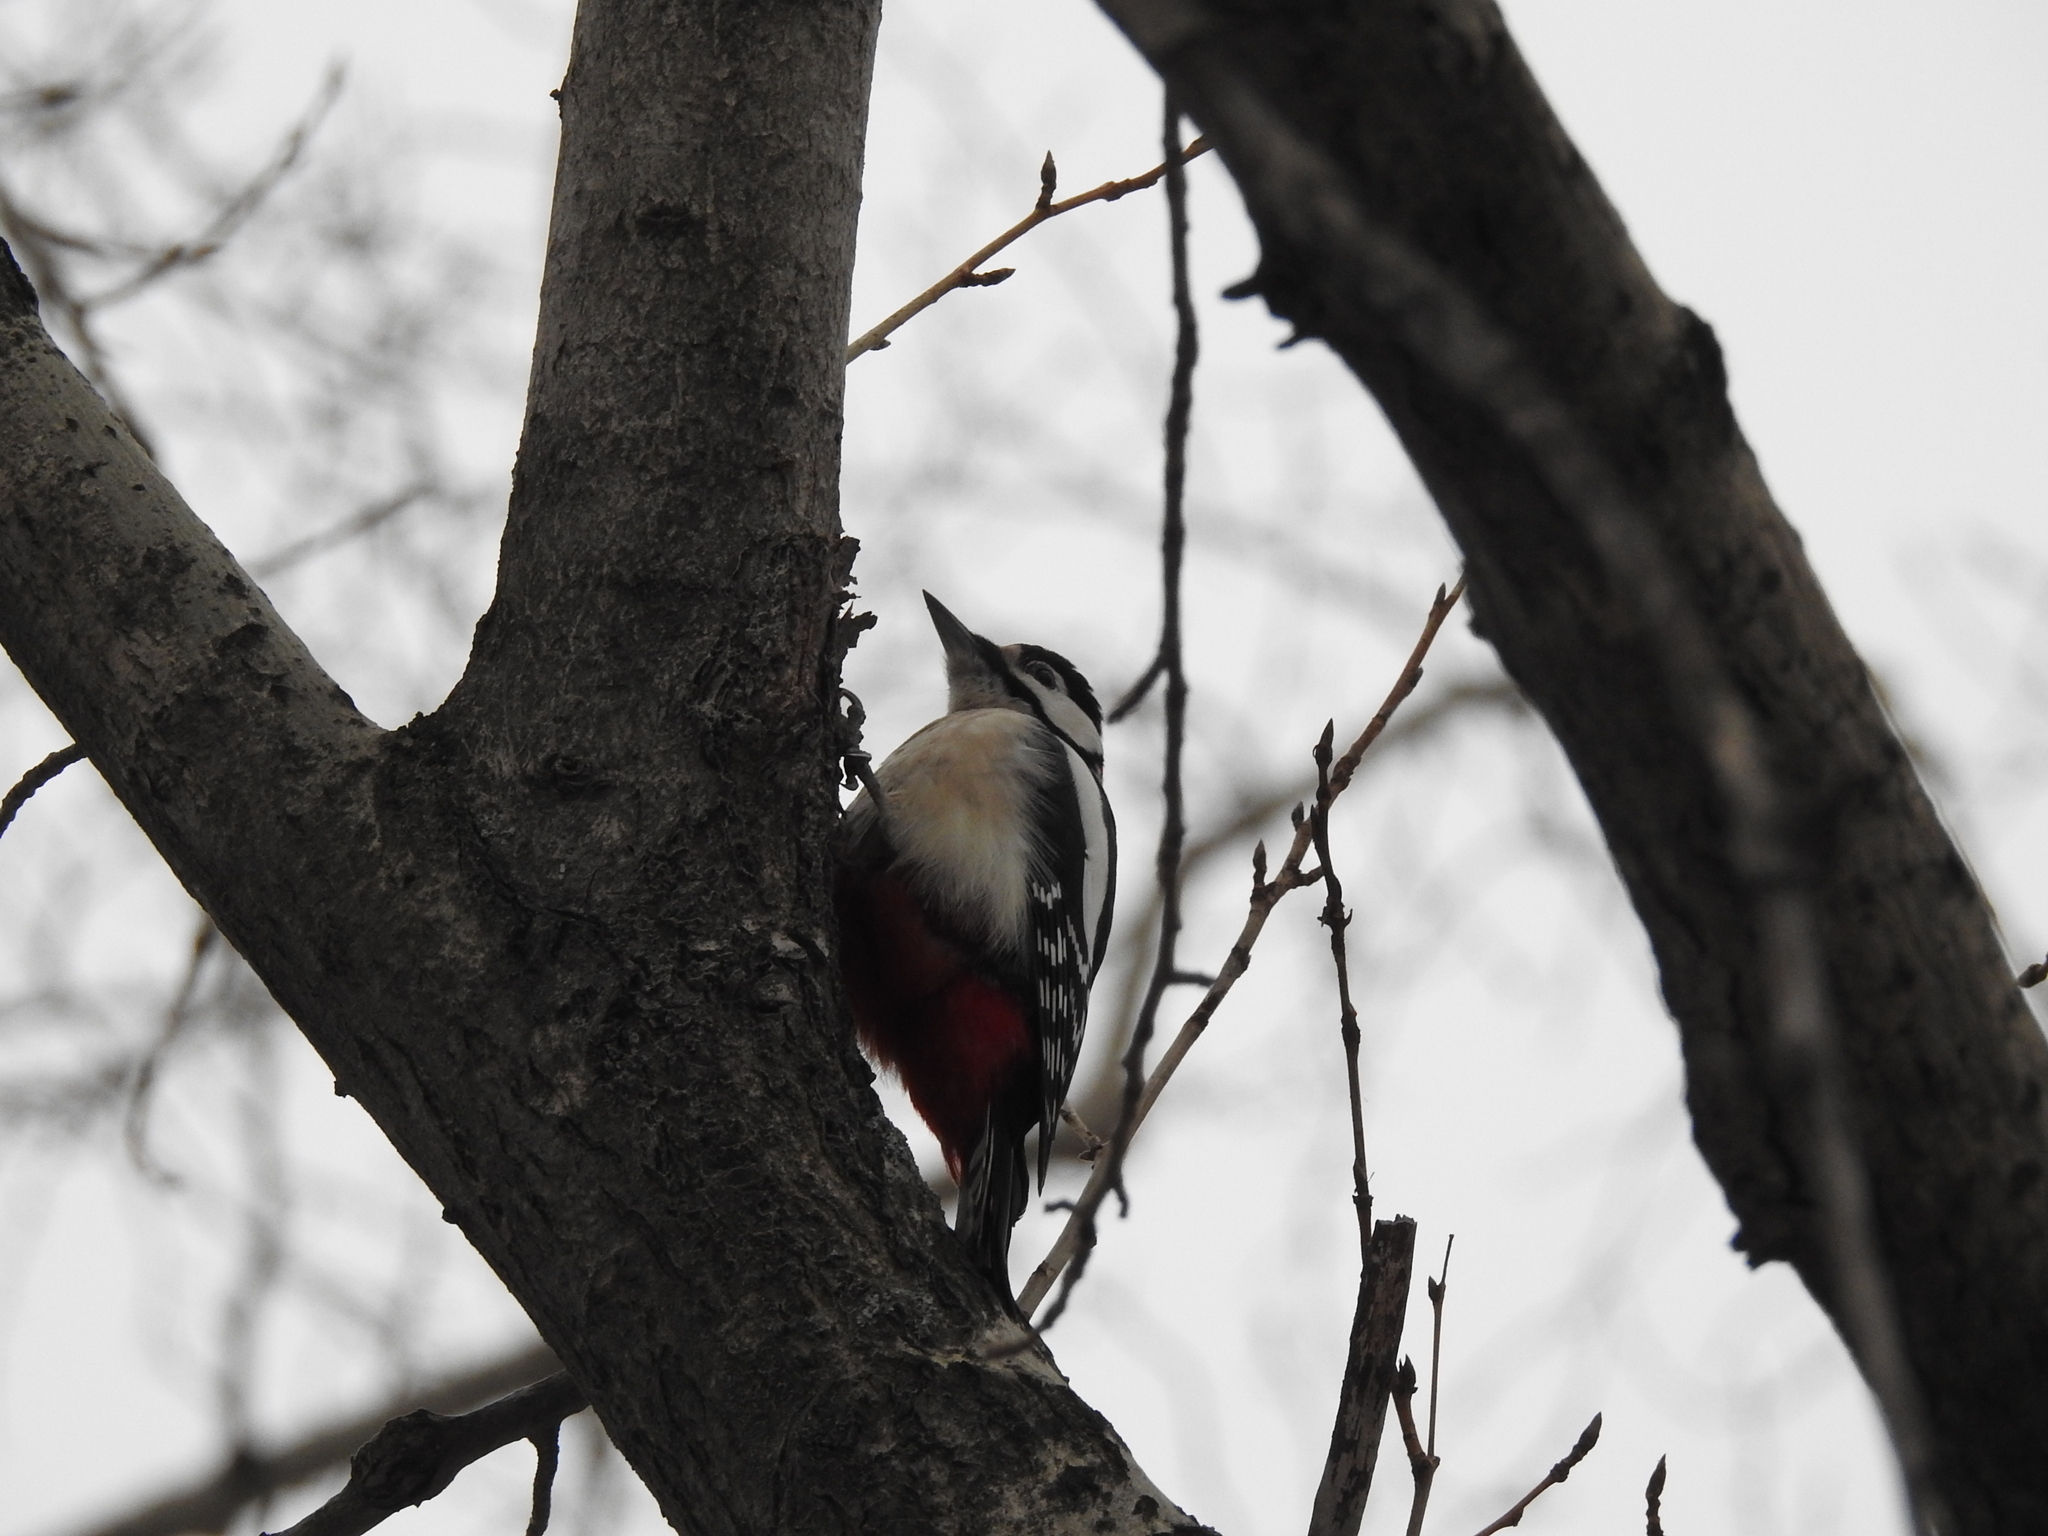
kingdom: Animalia
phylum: Chordata
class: Aves
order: Piciformes
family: Picidae
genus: Dendrocopos
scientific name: Dendrocopos major
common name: Great spotted woodpecker
